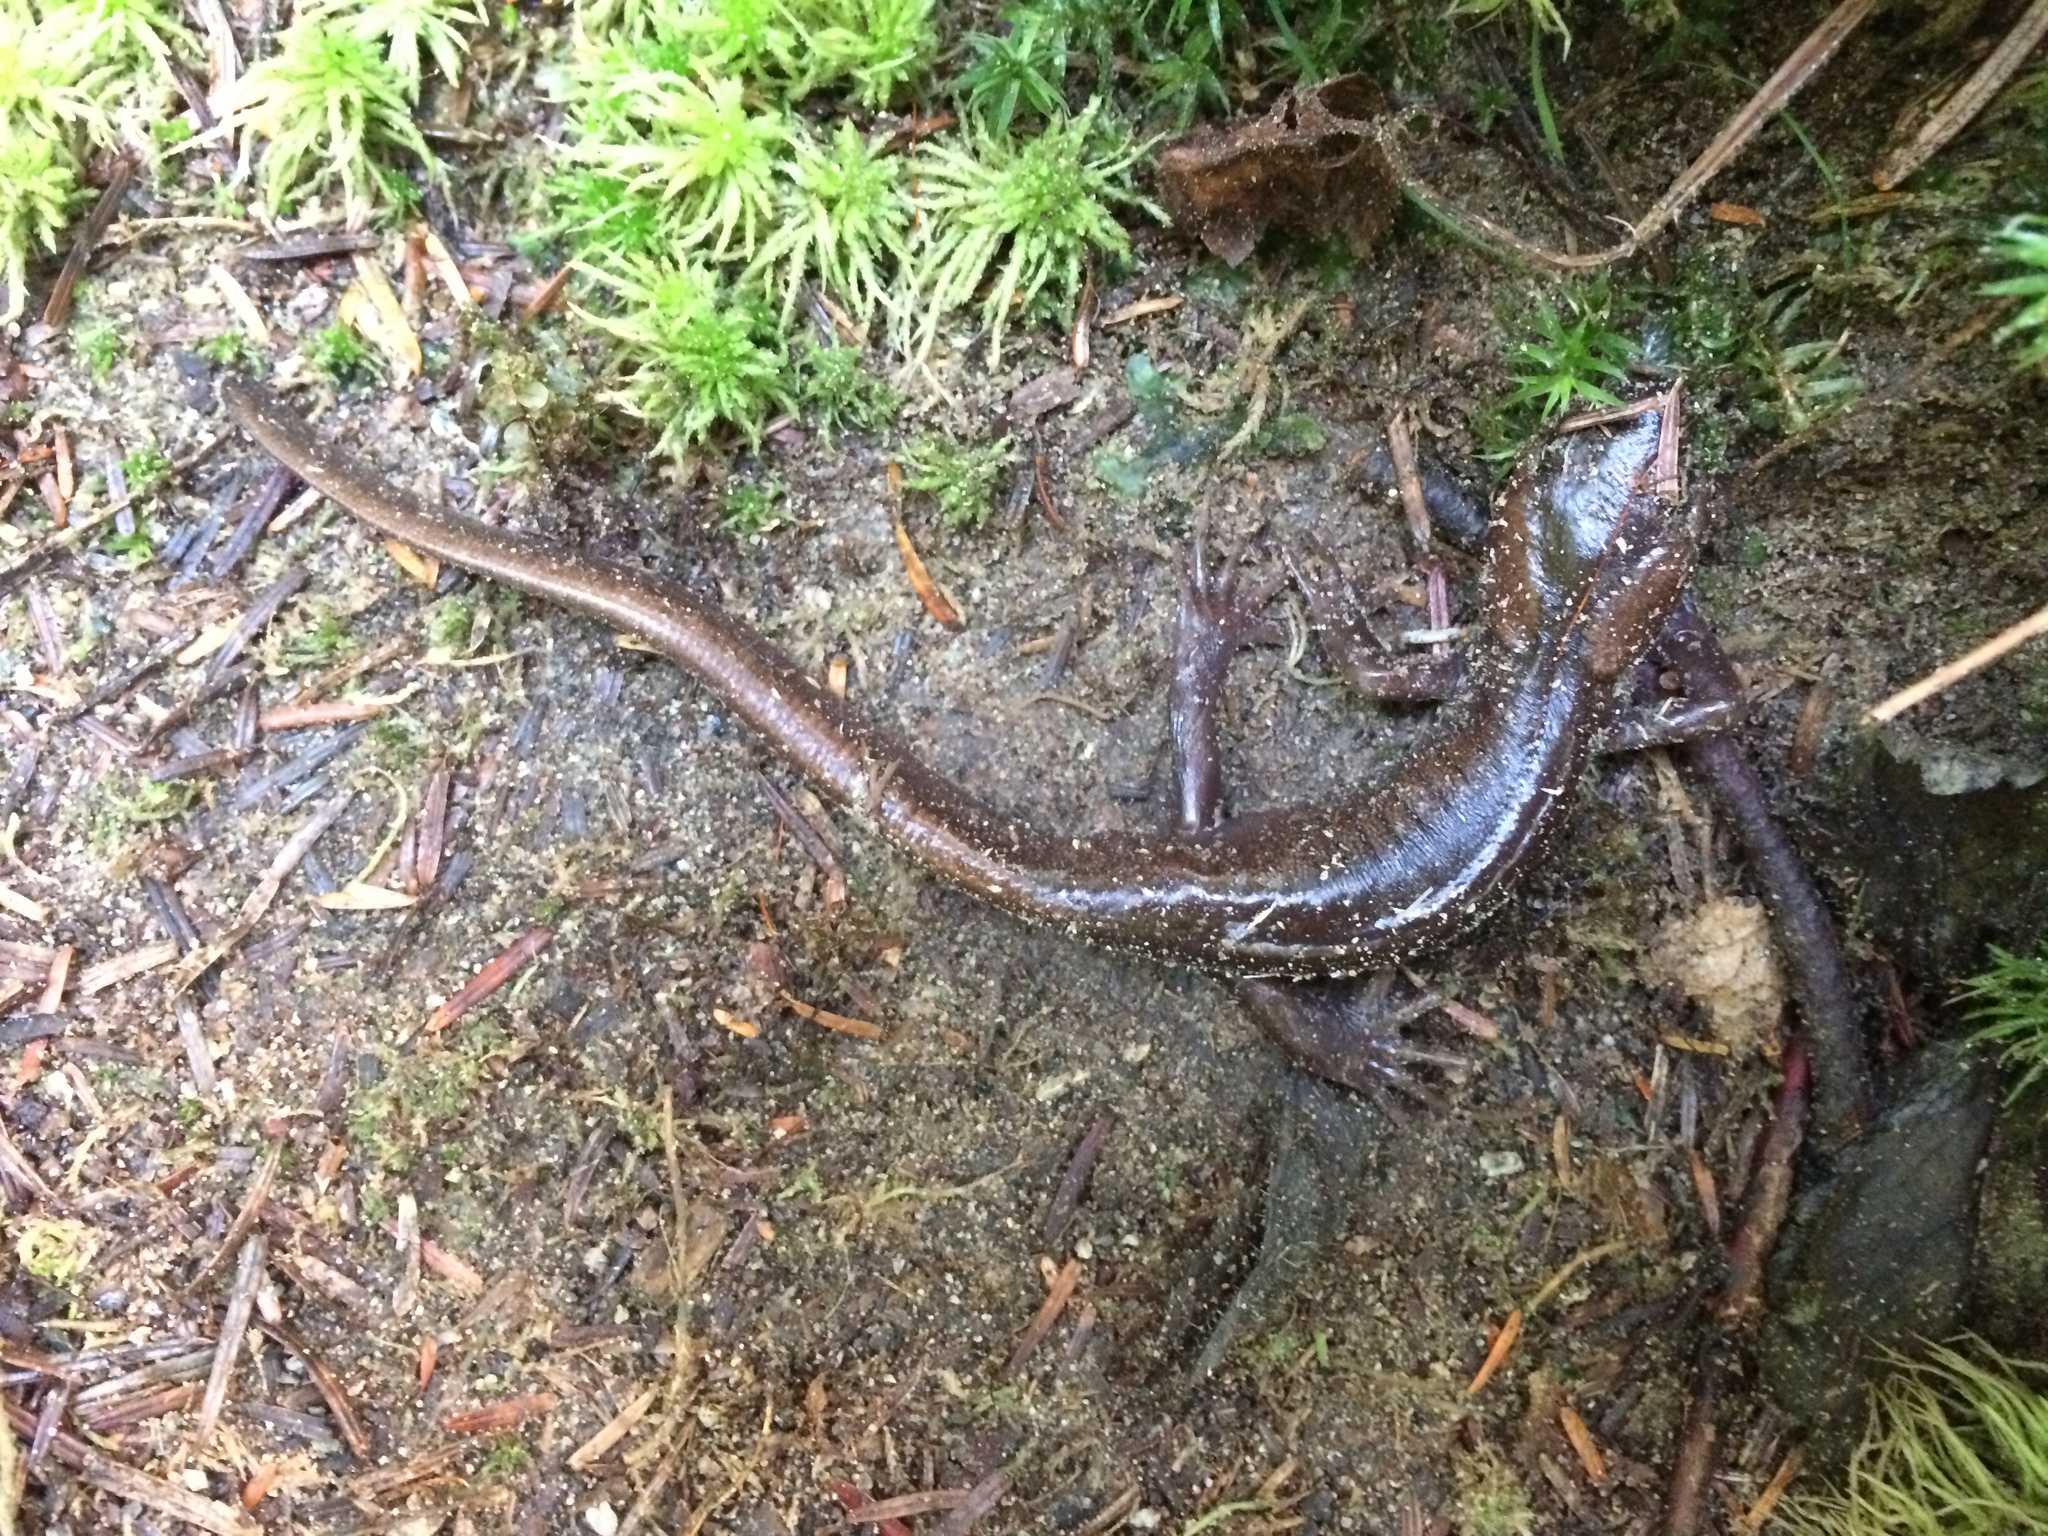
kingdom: Animalia
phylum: Chordata
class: Amphibia
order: Caudata
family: Ambystomatidae
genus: Ambystoma
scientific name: Ambystoma gracile
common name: Northwestern salamander
